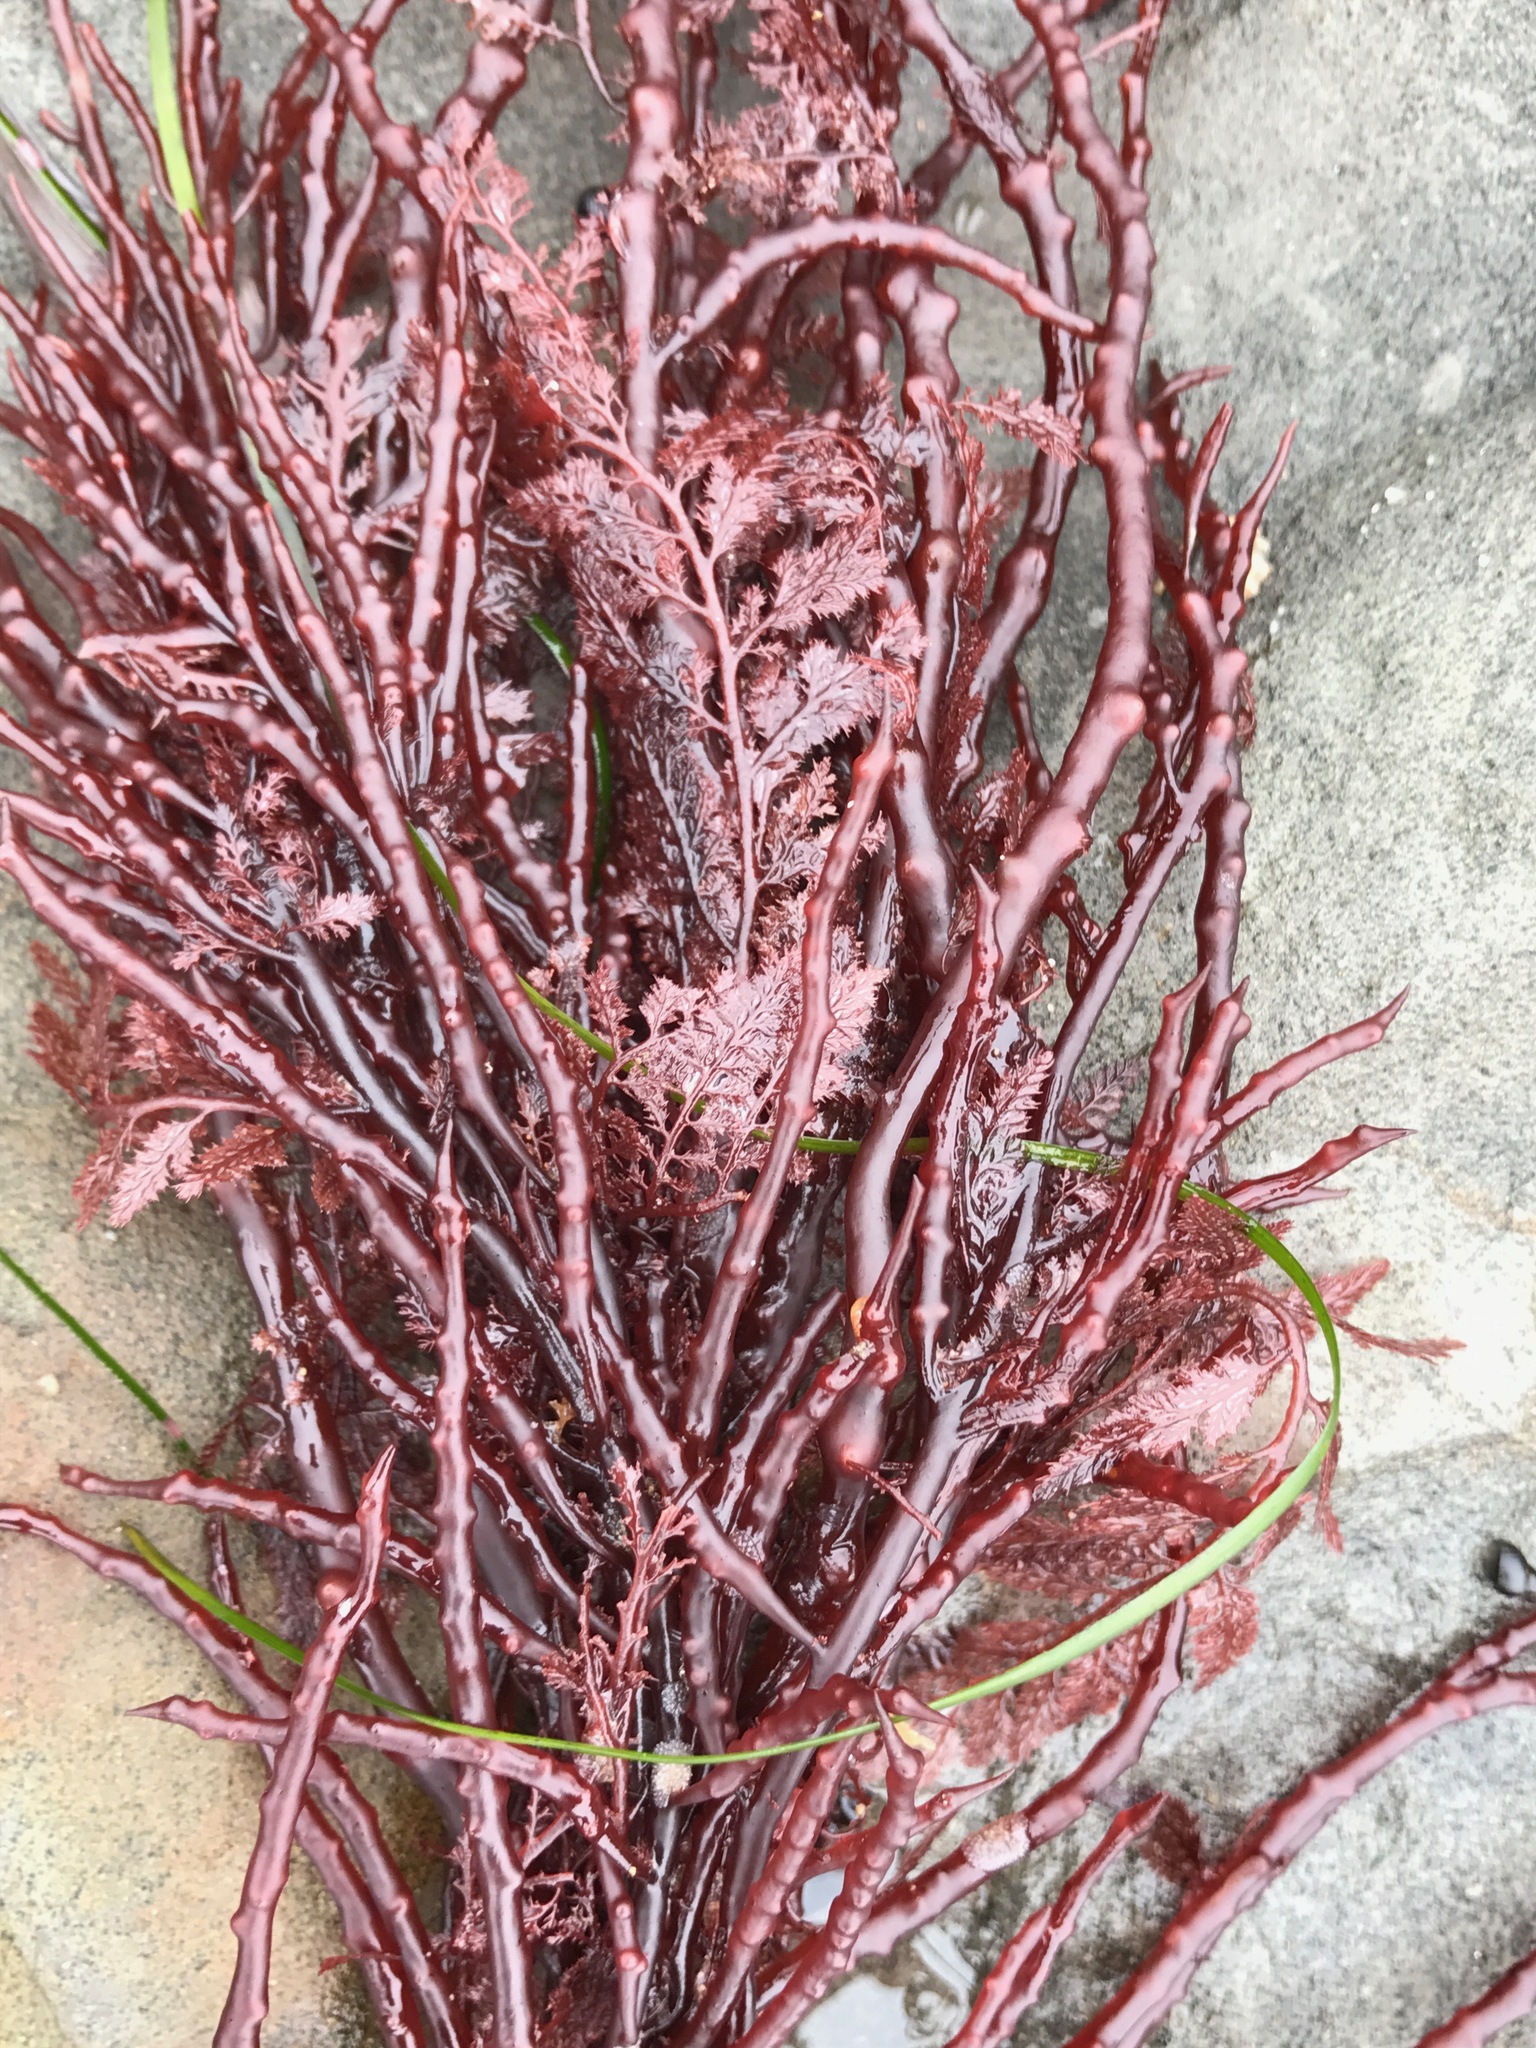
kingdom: Plantae
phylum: Rhodophyta
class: Florideophyceae
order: Ceramiales
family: Ceramiaceae
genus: Microcladia
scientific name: Microcladia coulteri
